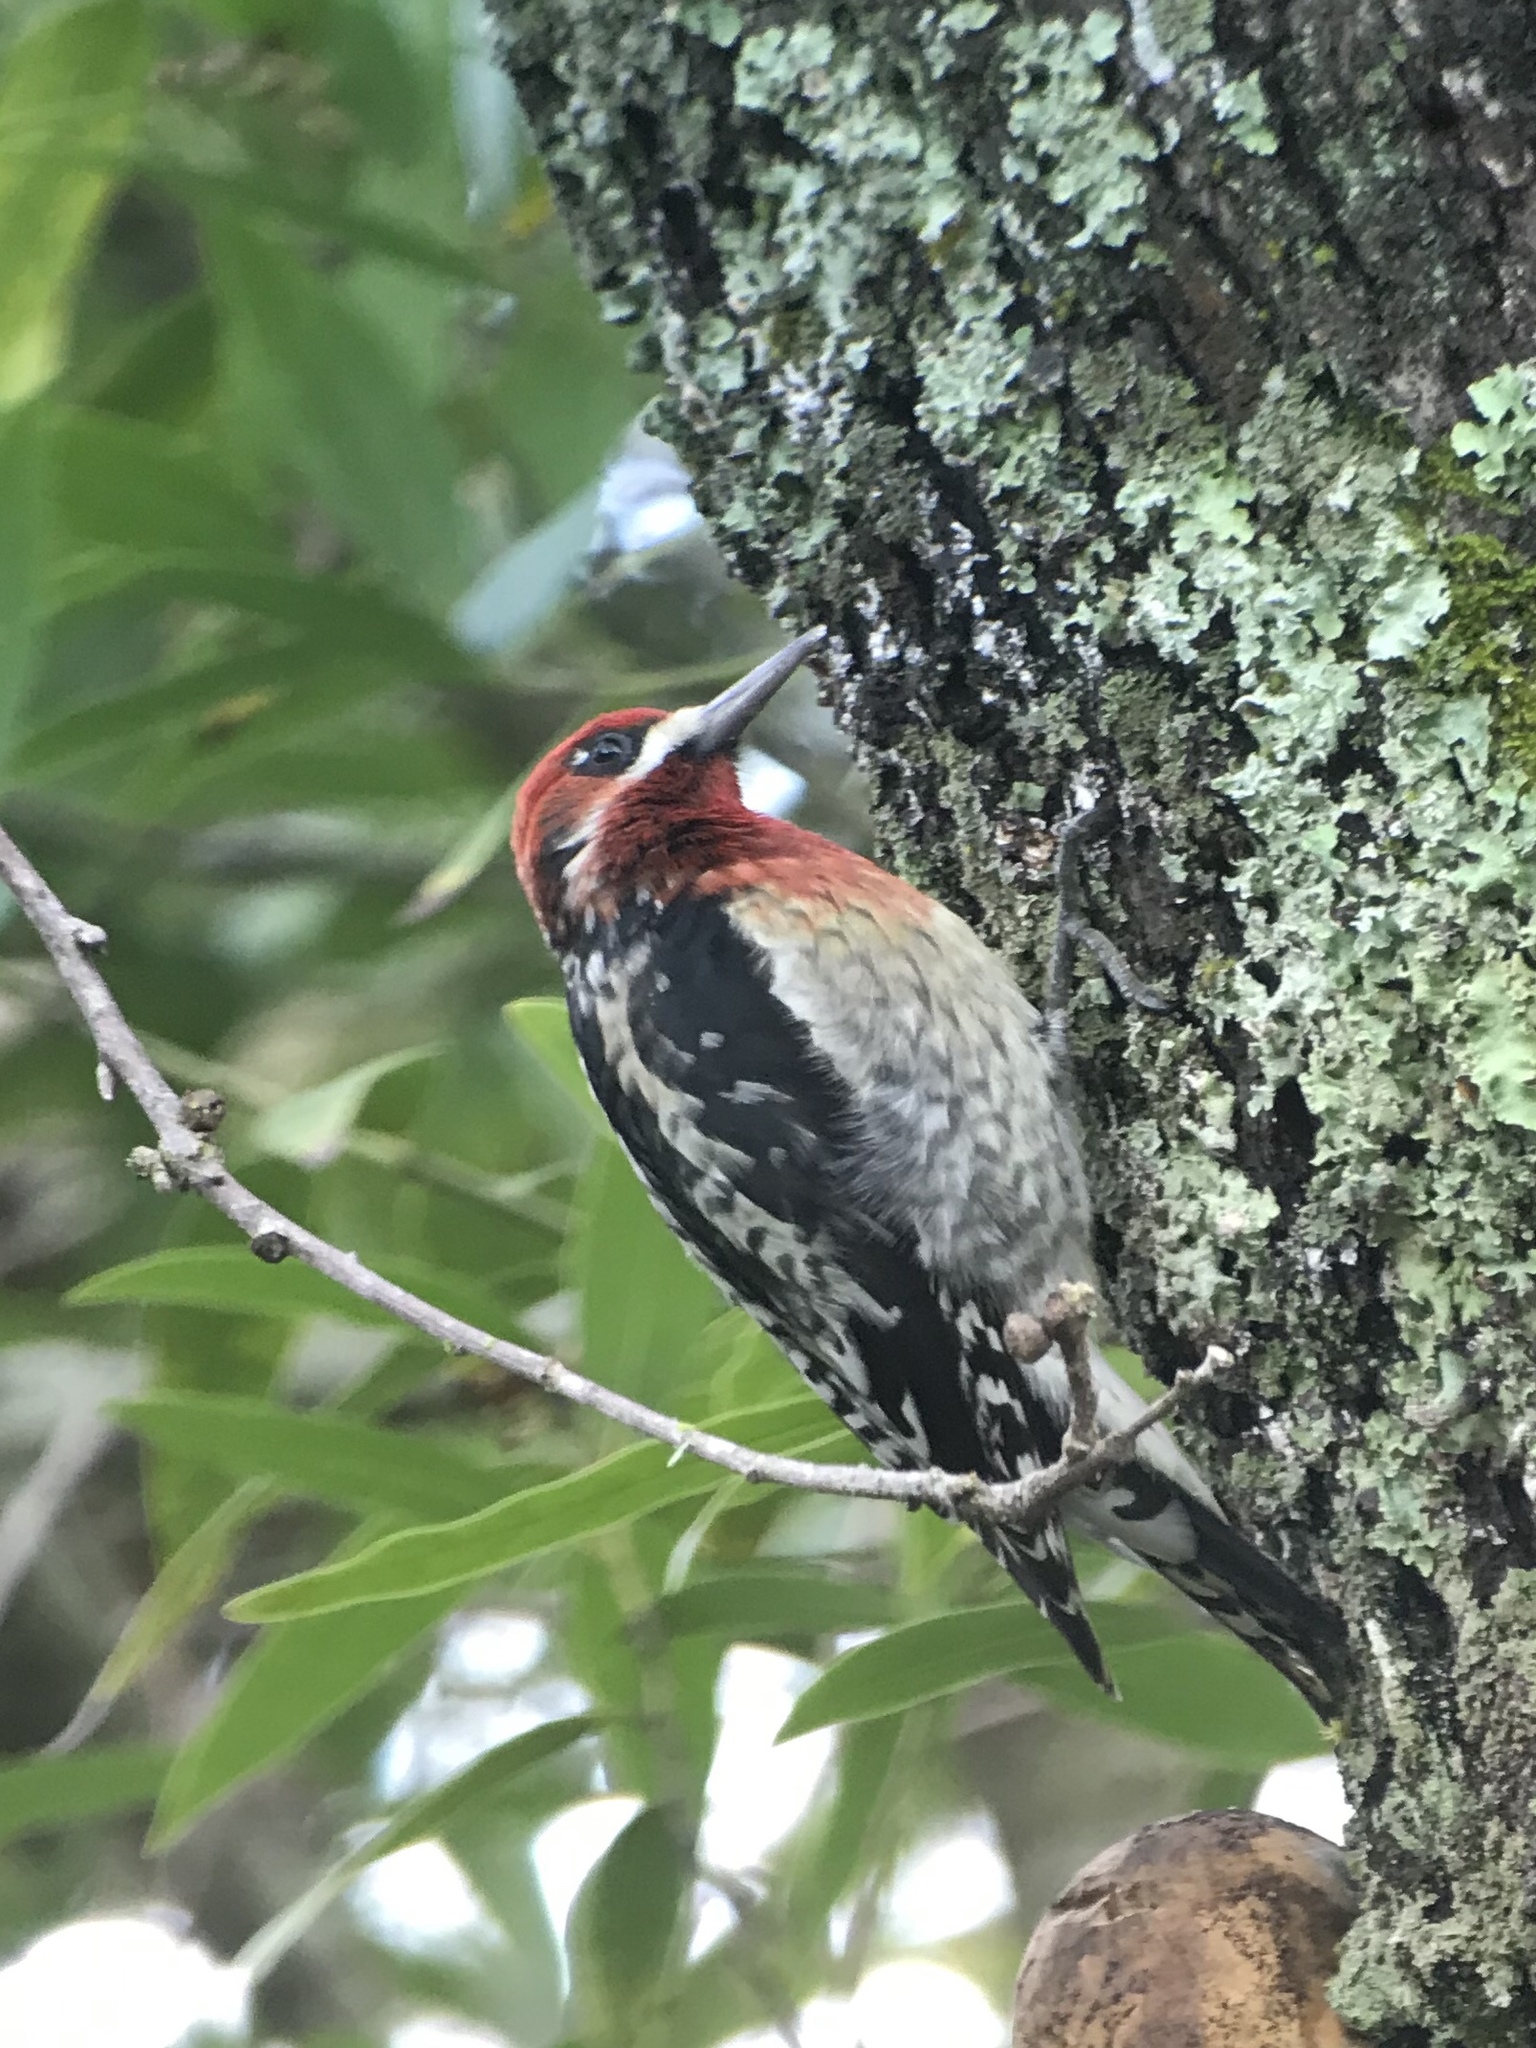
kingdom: Animalia
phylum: Chordata
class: Aves
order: Piciformes
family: Picidae
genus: Sphyrapicus
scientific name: Sphyrapicus ruber
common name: Red-breasted sapsucker
